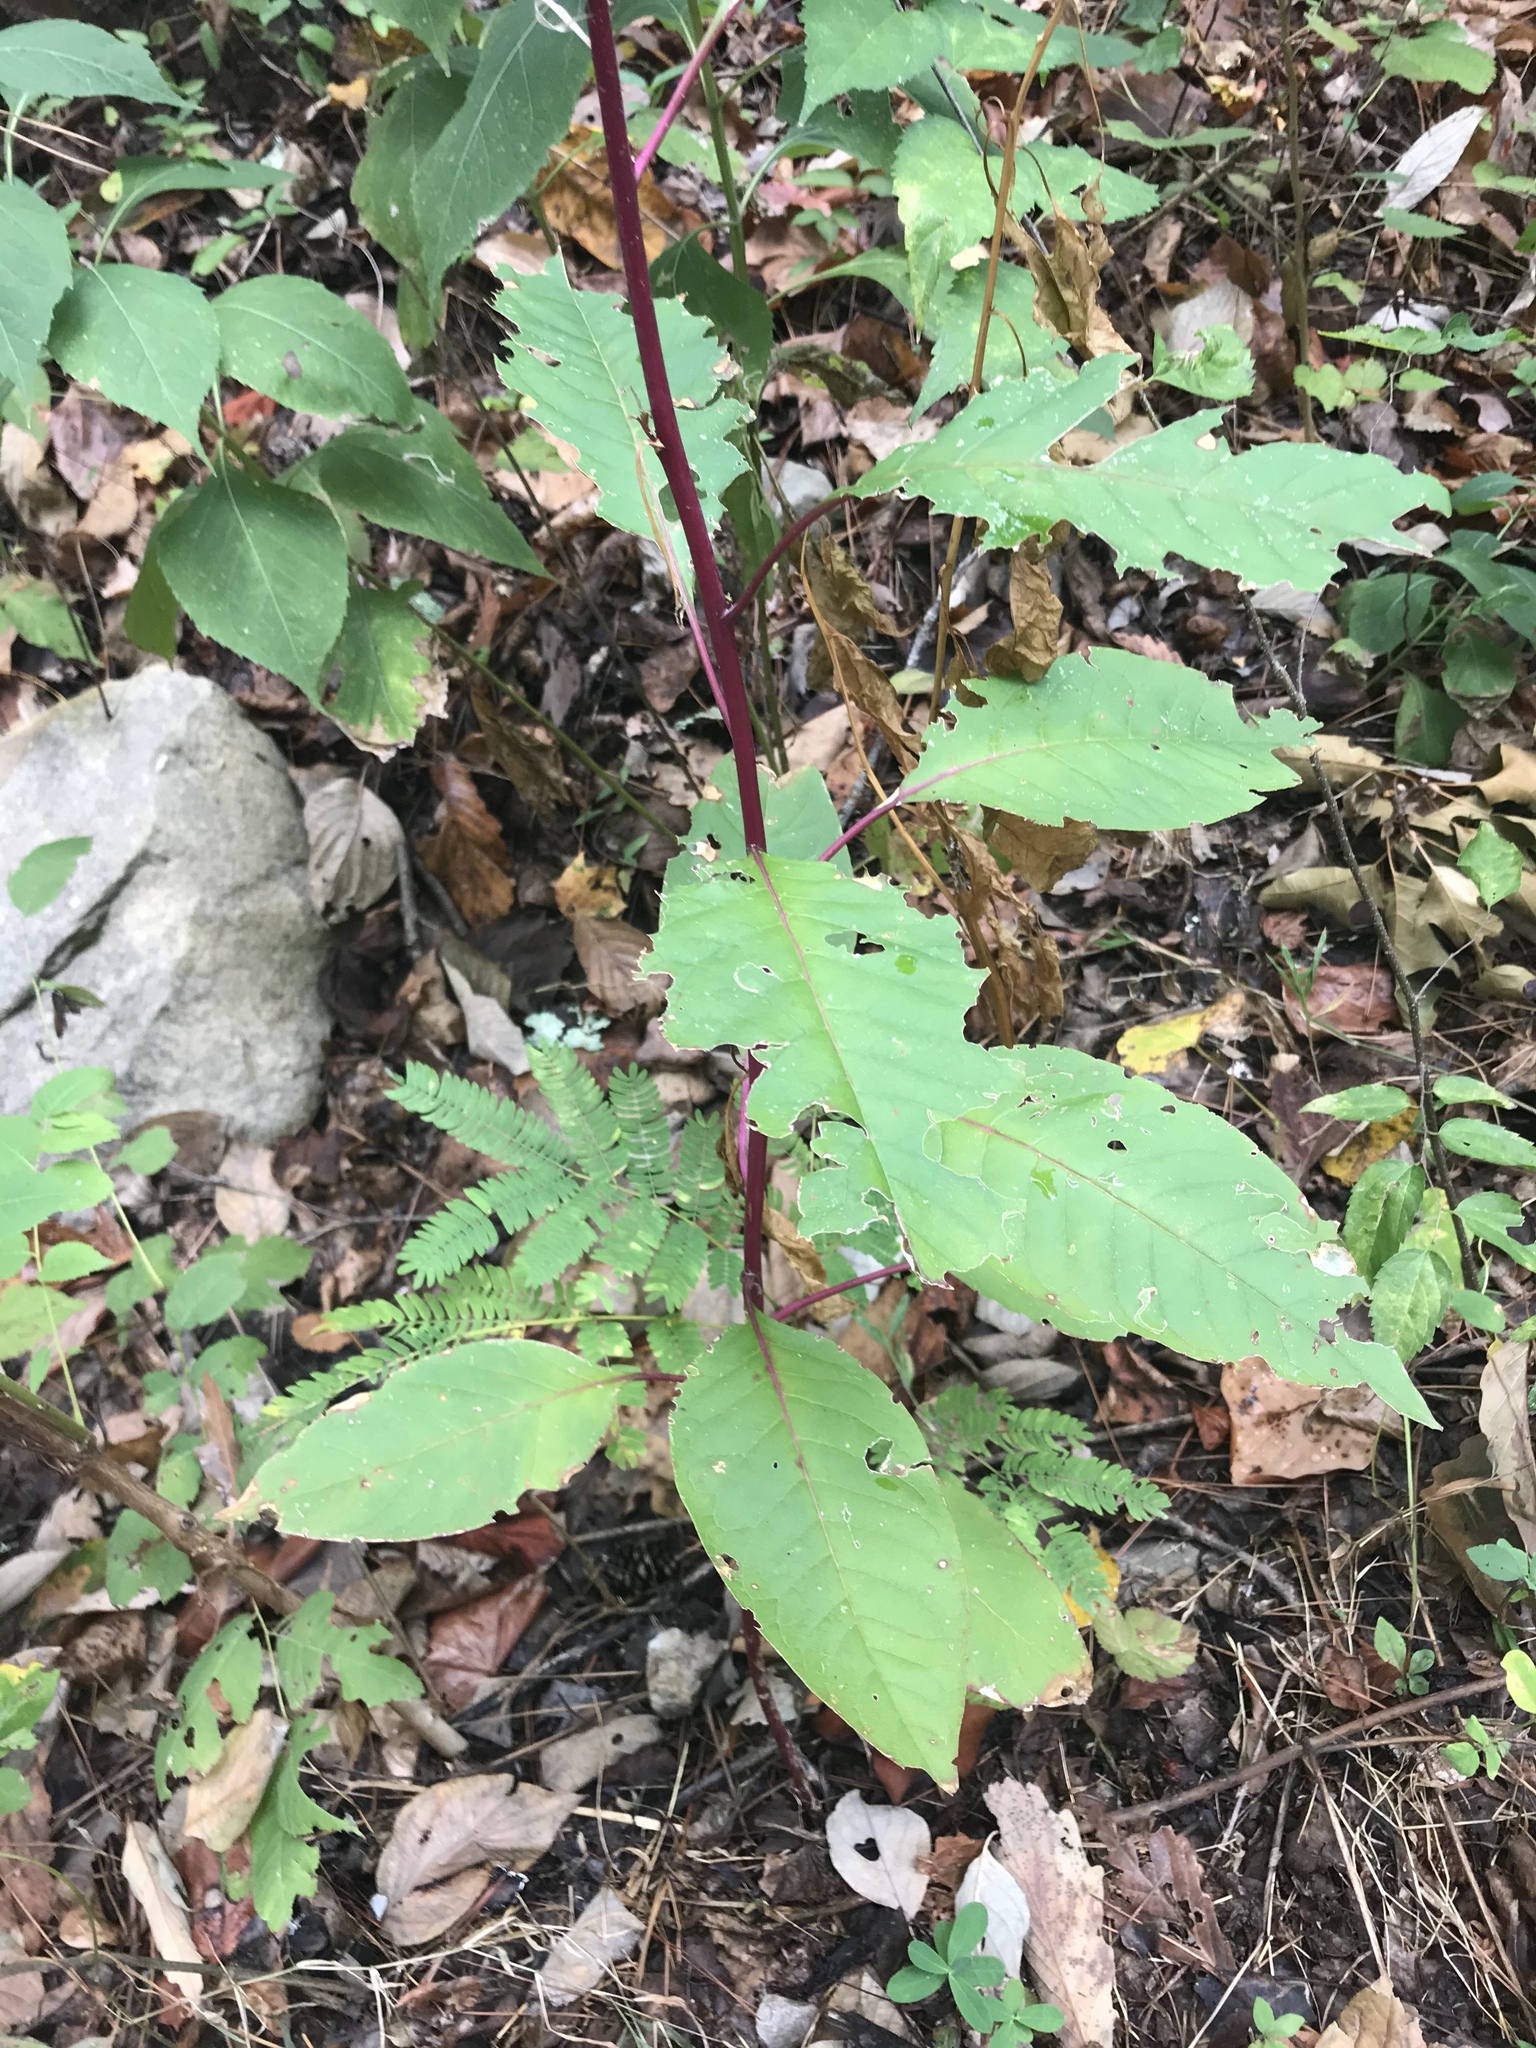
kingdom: Plantae
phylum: Tracheophyta
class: Magnoliopsida
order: Caryophyllales
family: Phytolaccaceae
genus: Phytolacca
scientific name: Phytolacca americana
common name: American pokeweed
